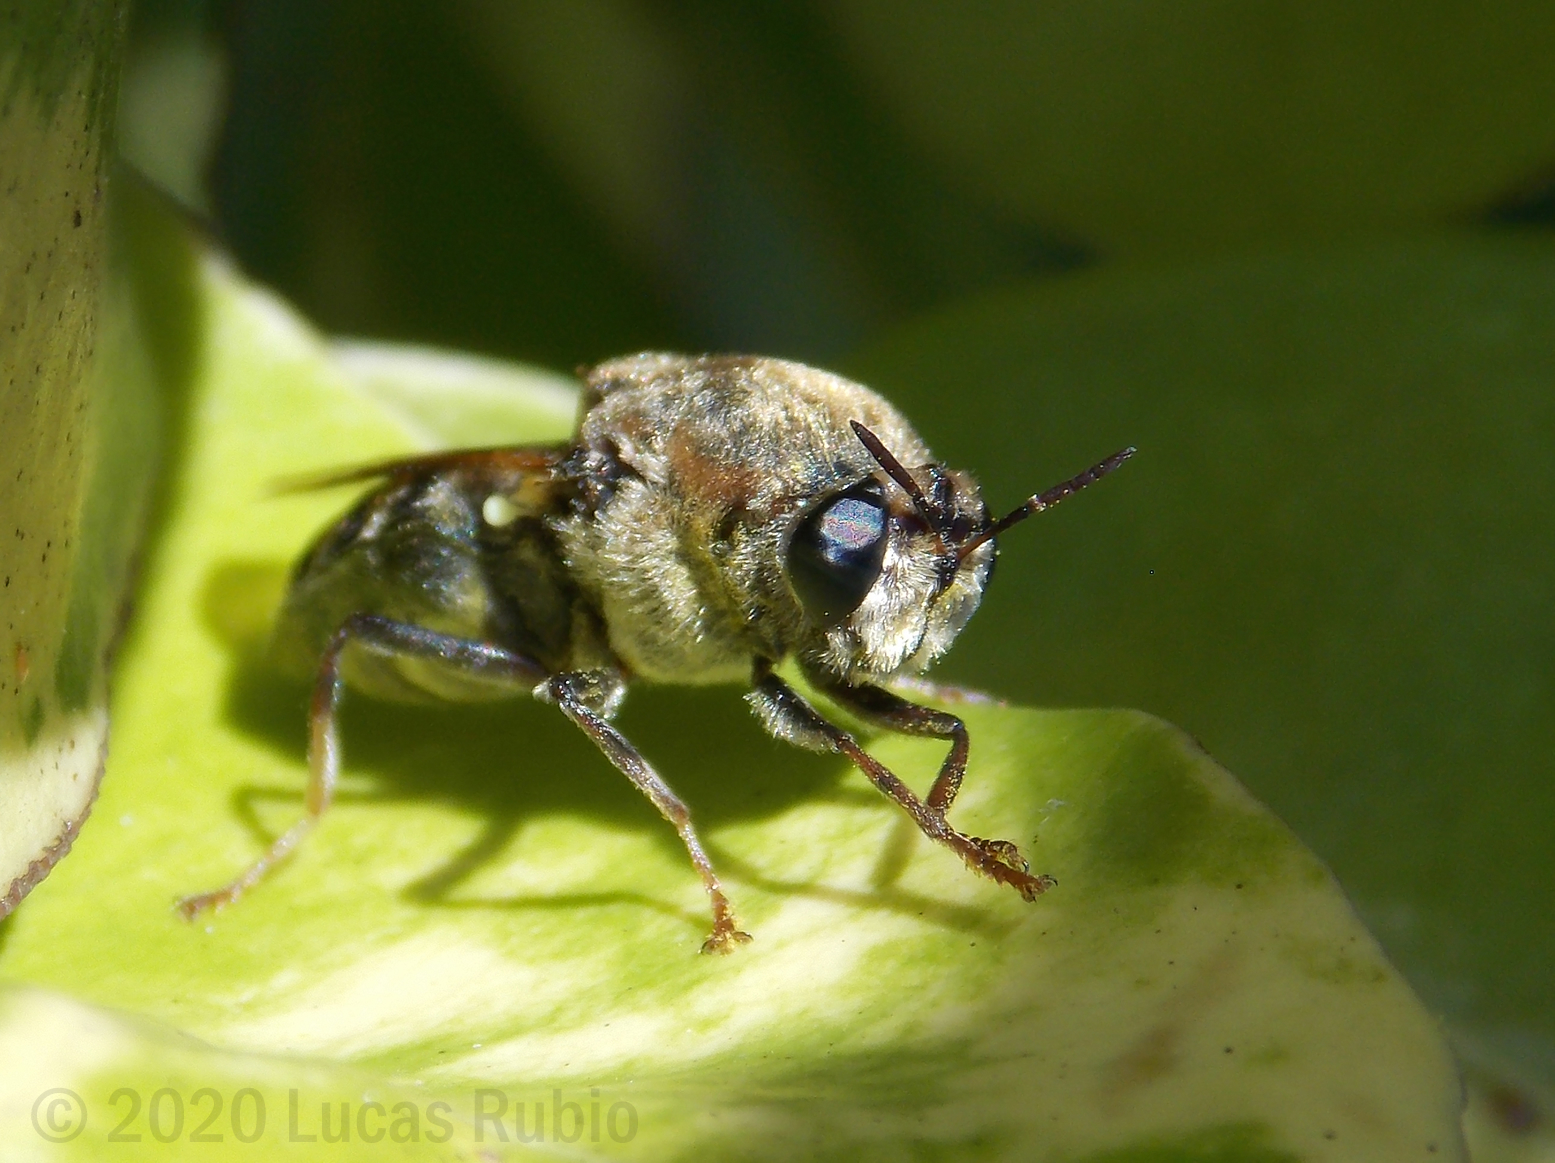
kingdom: Animalia
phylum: Arthropoda
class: Insecta
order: Diptera
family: Stratiomyidae
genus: Stratiomys
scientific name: Stratiomys constricta
